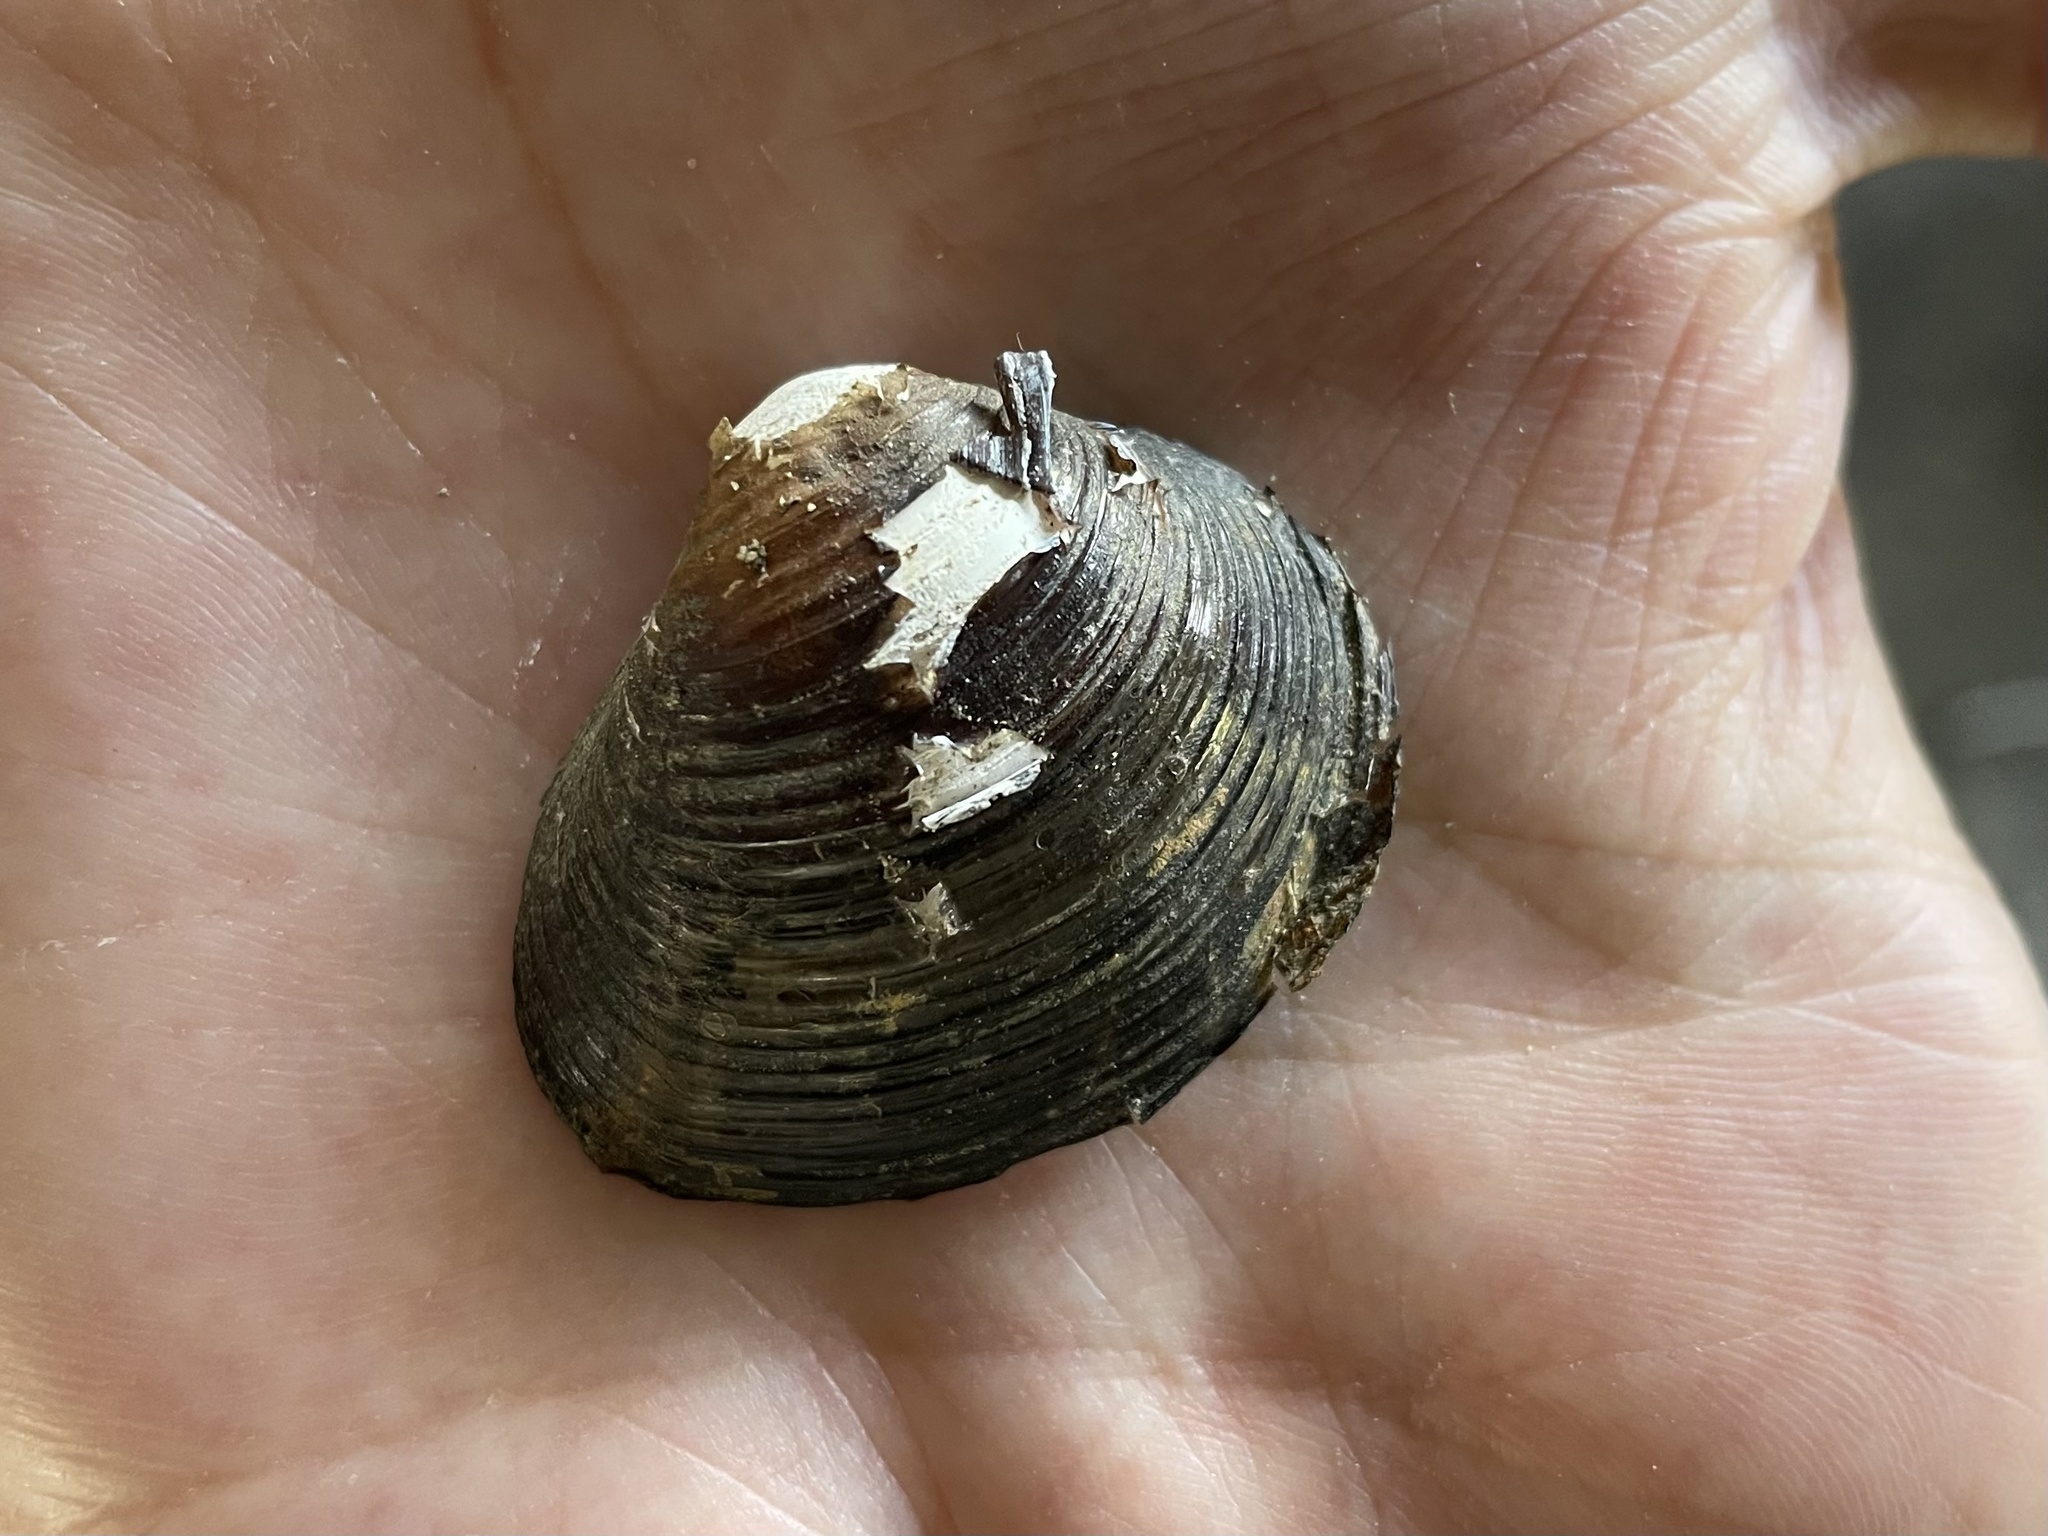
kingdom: Animalia
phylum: Mollusca
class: Bivalvia
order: Venerida
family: Cyrenidae
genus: Corbicula
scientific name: Corbicula fluminea
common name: Asian clam
